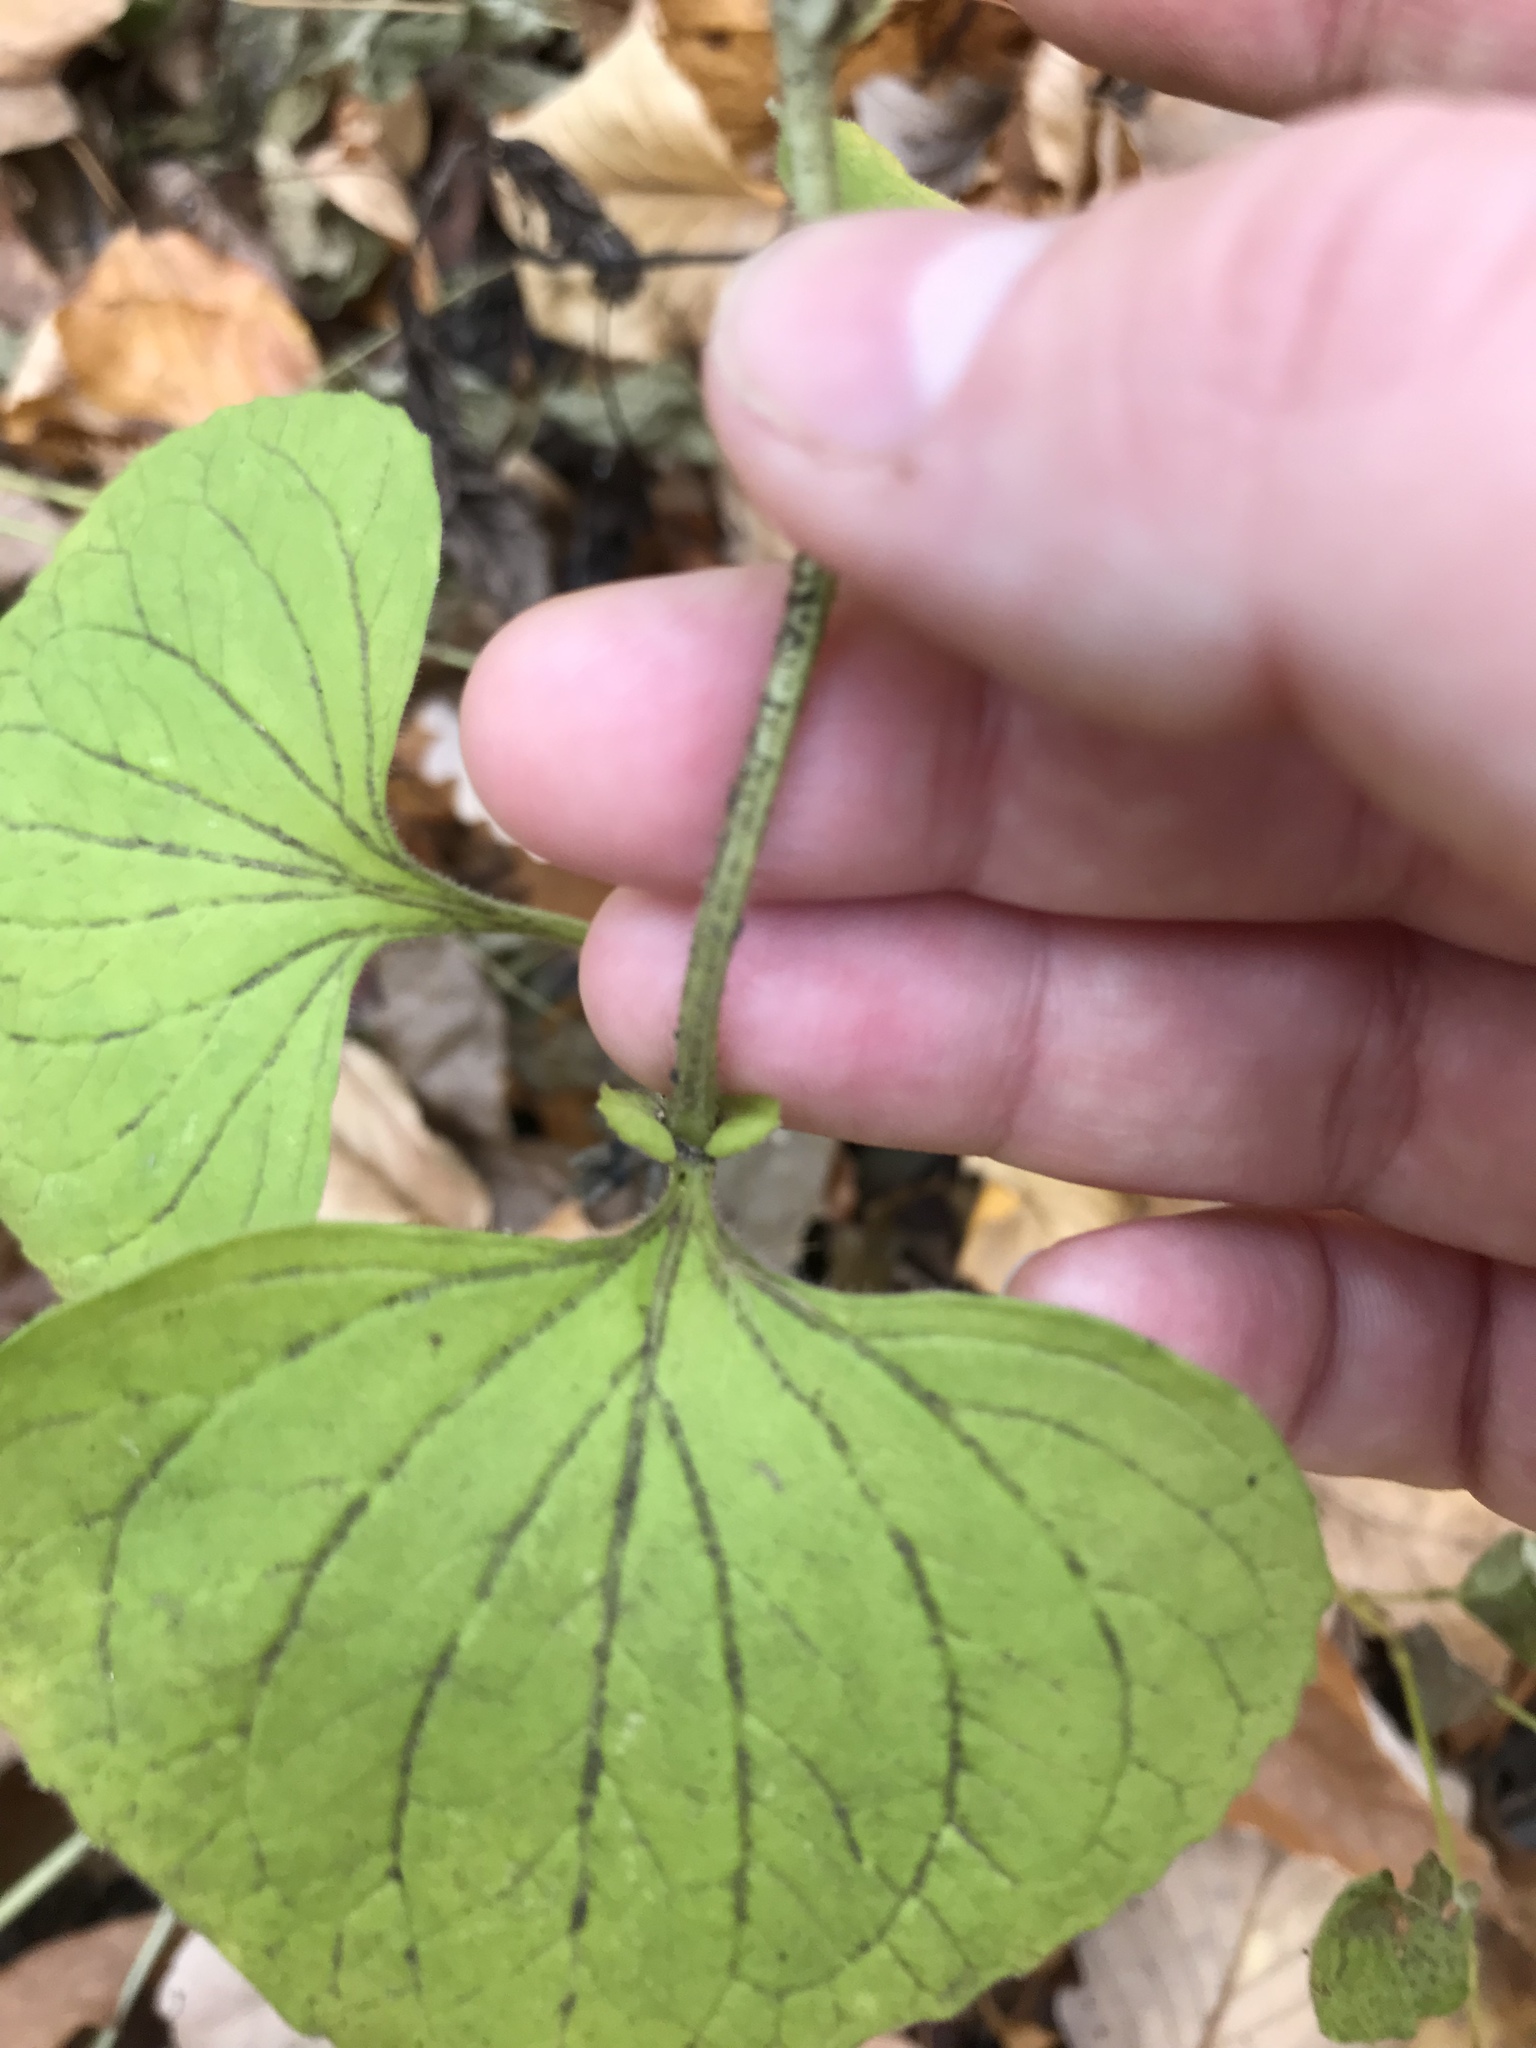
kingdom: Plantae
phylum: Tracheophyta
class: Magnoliopsida
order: Malpighiales
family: Violaceae
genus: Viola
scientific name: Viola eriocarpa
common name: Smooth yellow violet
